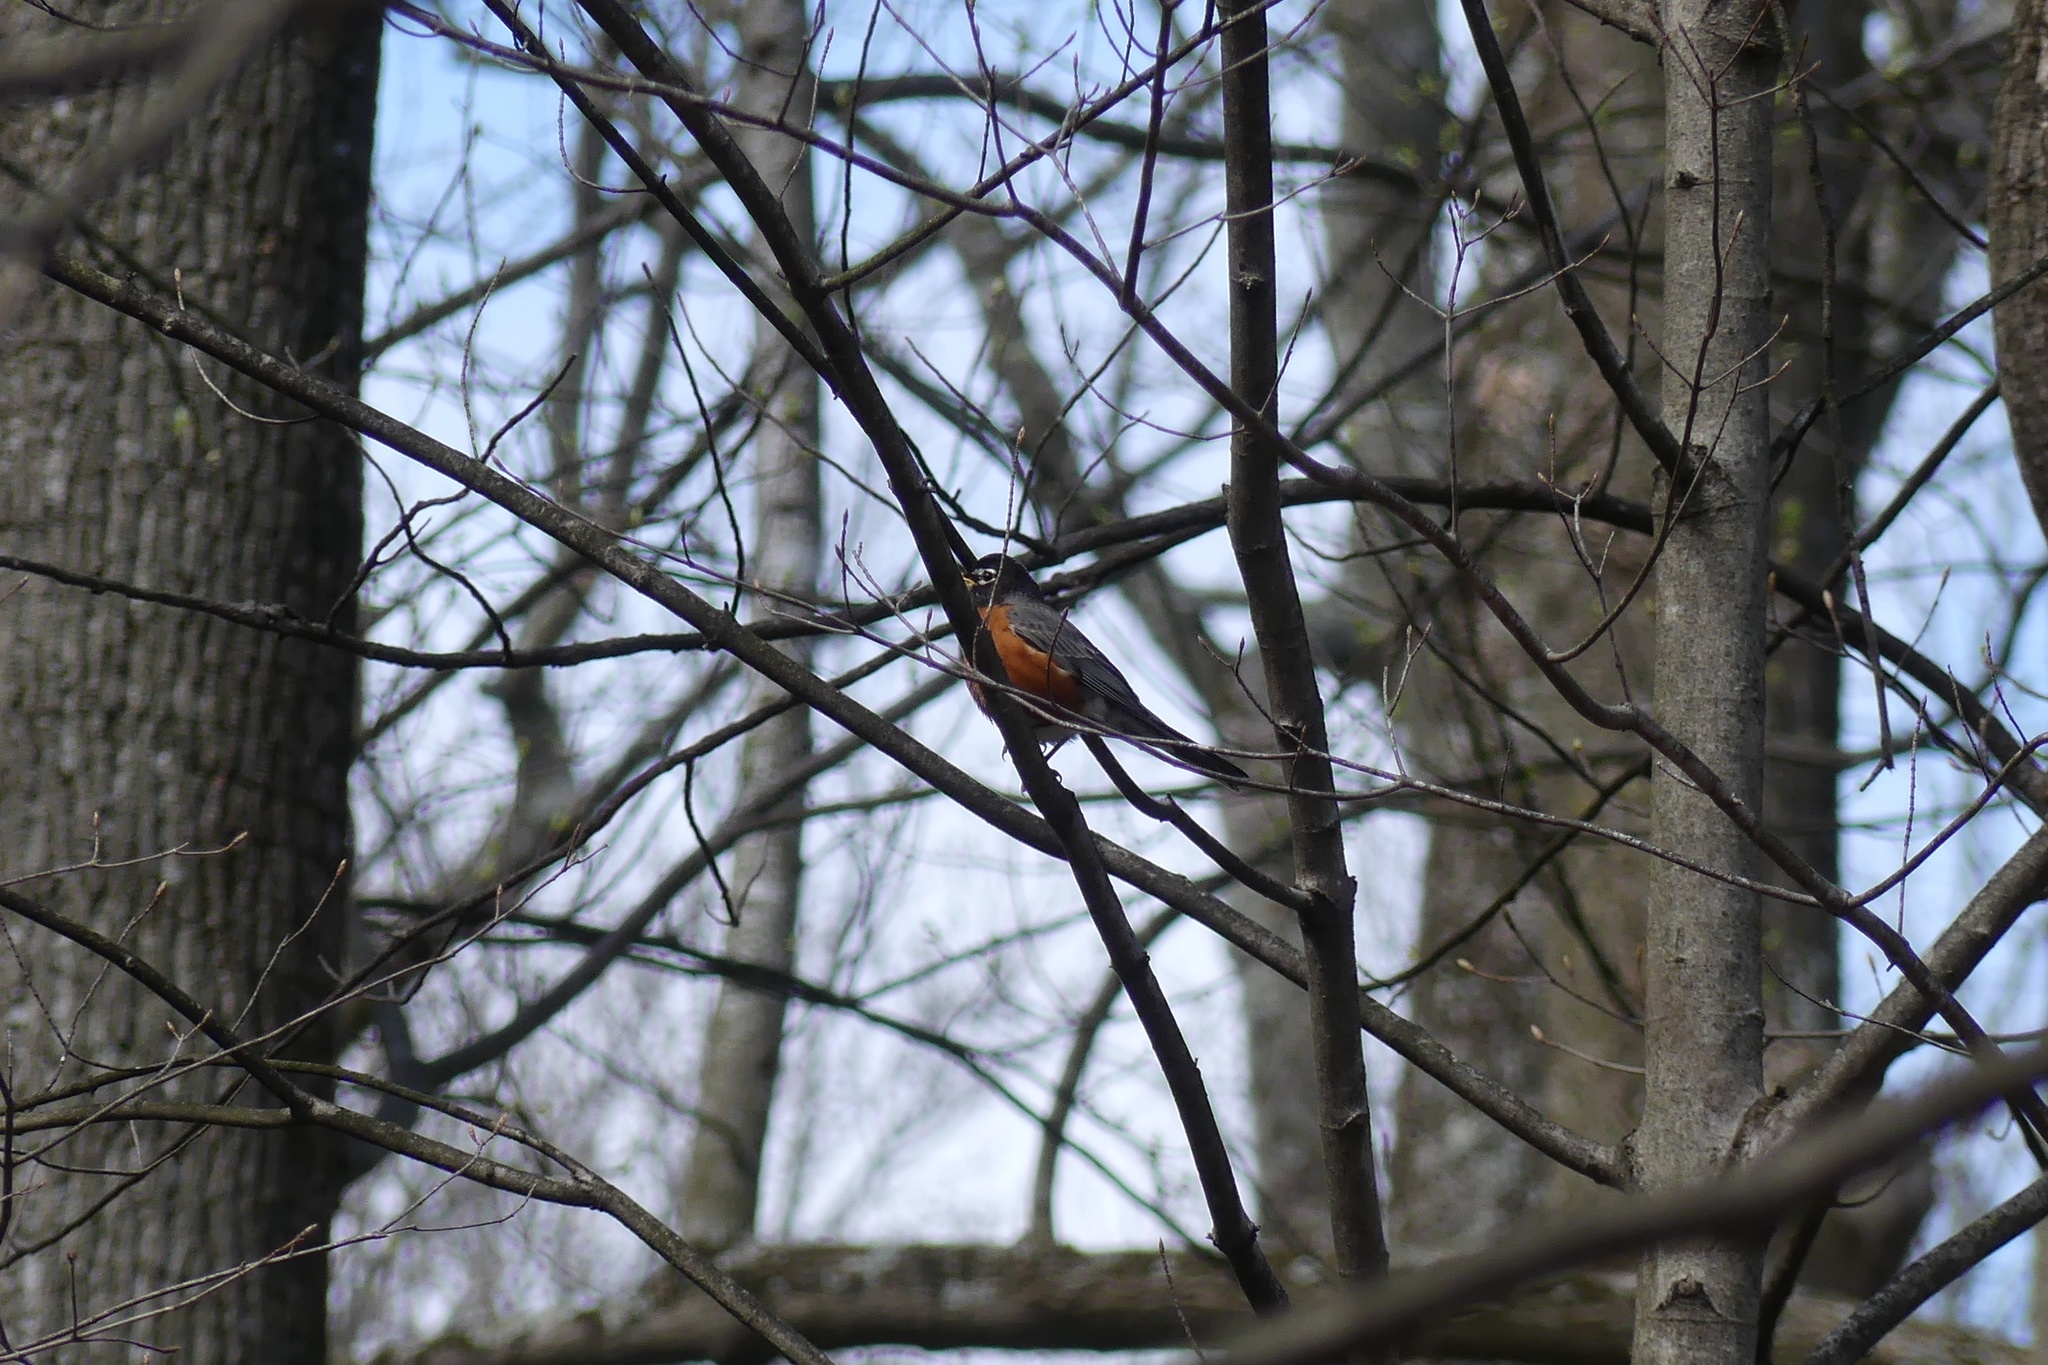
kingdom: Animalia
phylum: Chordata
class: Aves
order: Passeriformes
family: Turdidae
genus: Turdus
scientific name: Turdus migratorius
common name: American robin
